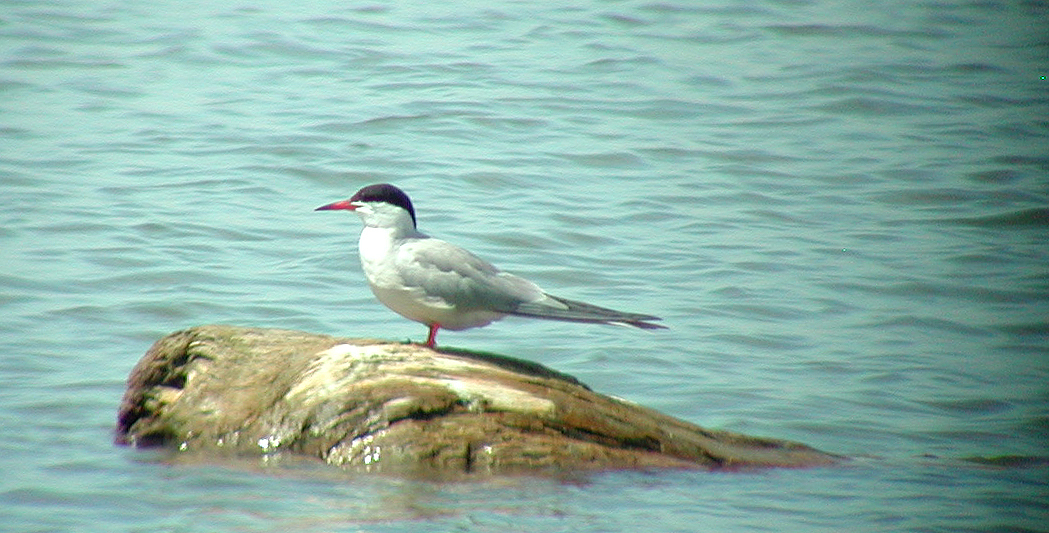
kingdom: Animalia
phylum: Chordata
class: Aves
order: Charadriiformes
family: Laridae
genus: Sterna
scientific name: Sterna hirundo
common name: Common tern
